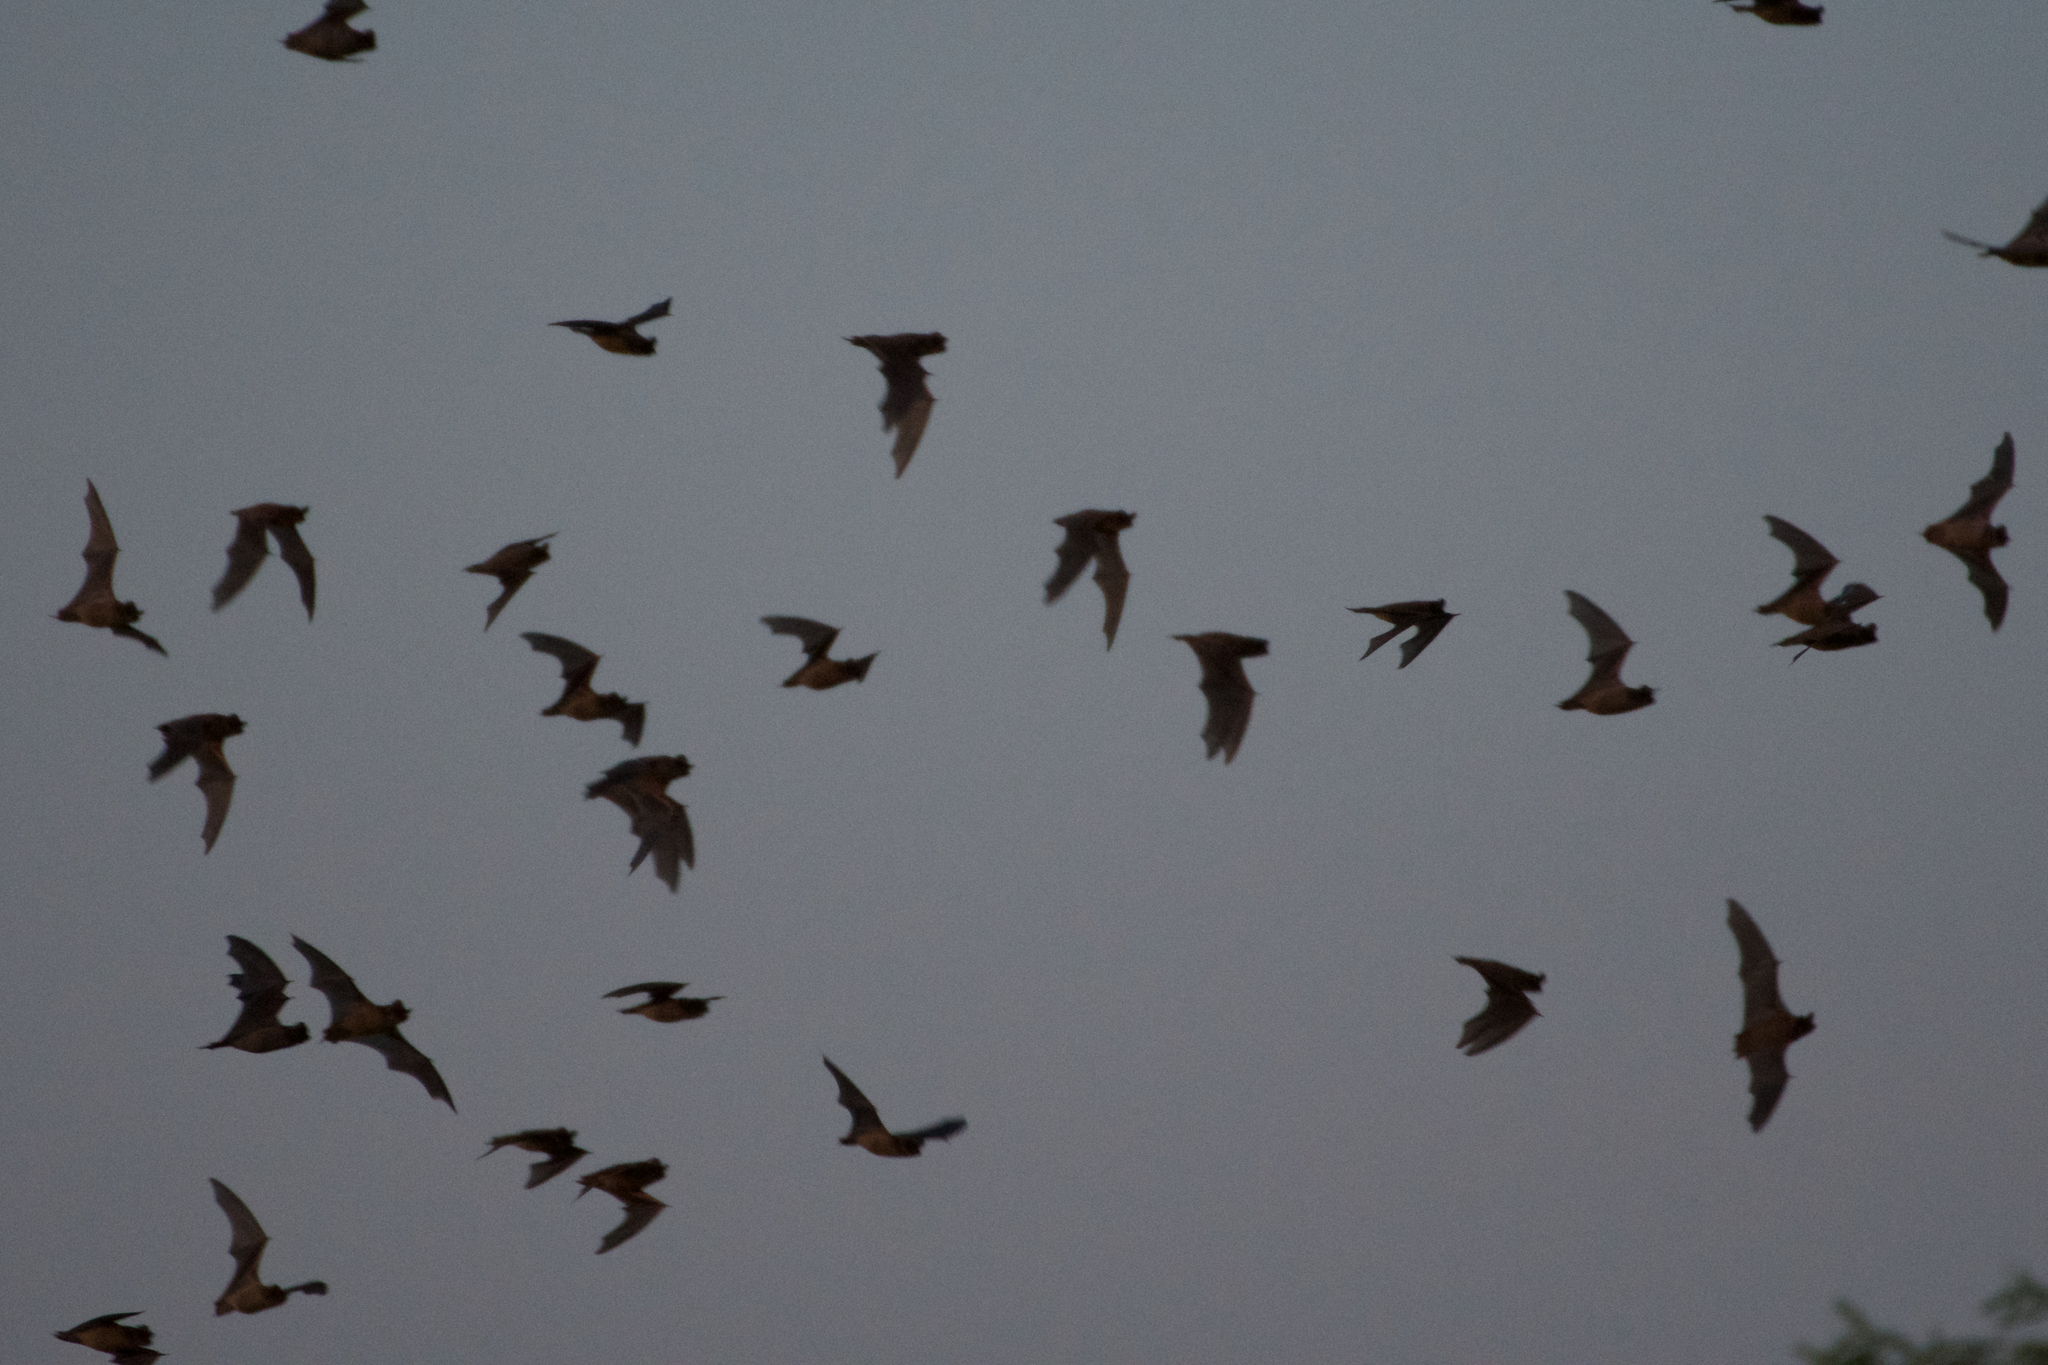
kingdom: Animalia
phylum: Chordata
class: Mammalia
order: Chiroptera
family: Molossidae
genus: Tadarida
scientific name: Tadarida brasiliensis
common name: Mexican free-tailed bat
